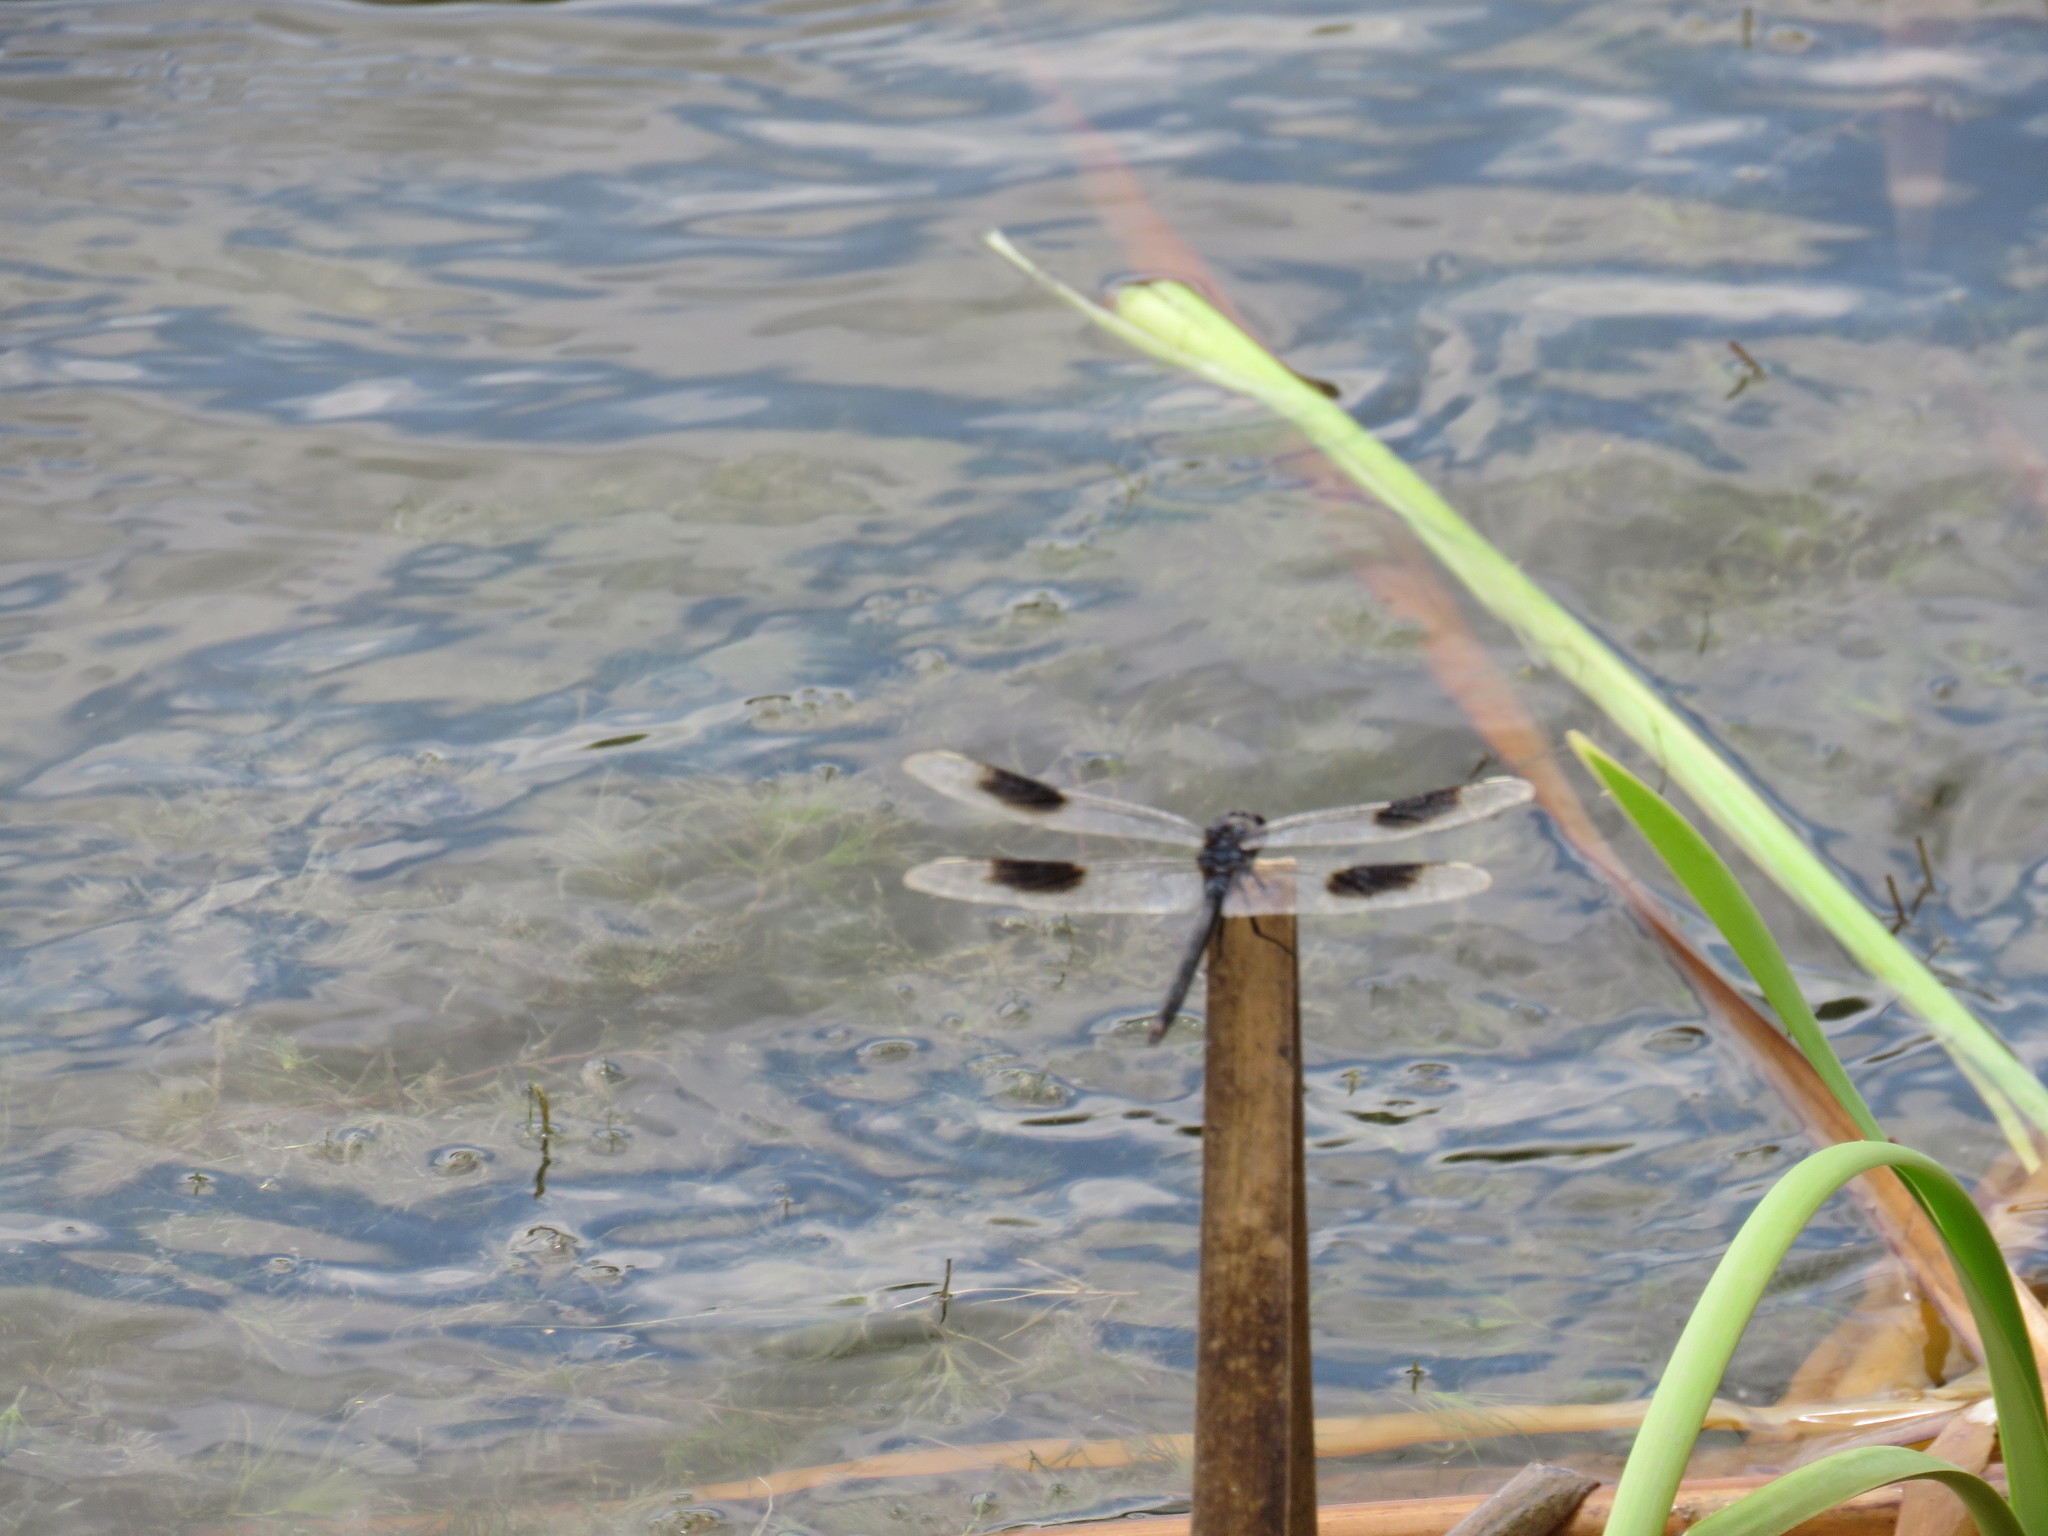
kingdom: Animalia
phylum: Arthropoda
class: Insecta
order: Odonata
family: Libellulidae
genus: Brachymesia
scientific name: Brachymesia gravida
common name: Four-spotted pennant
